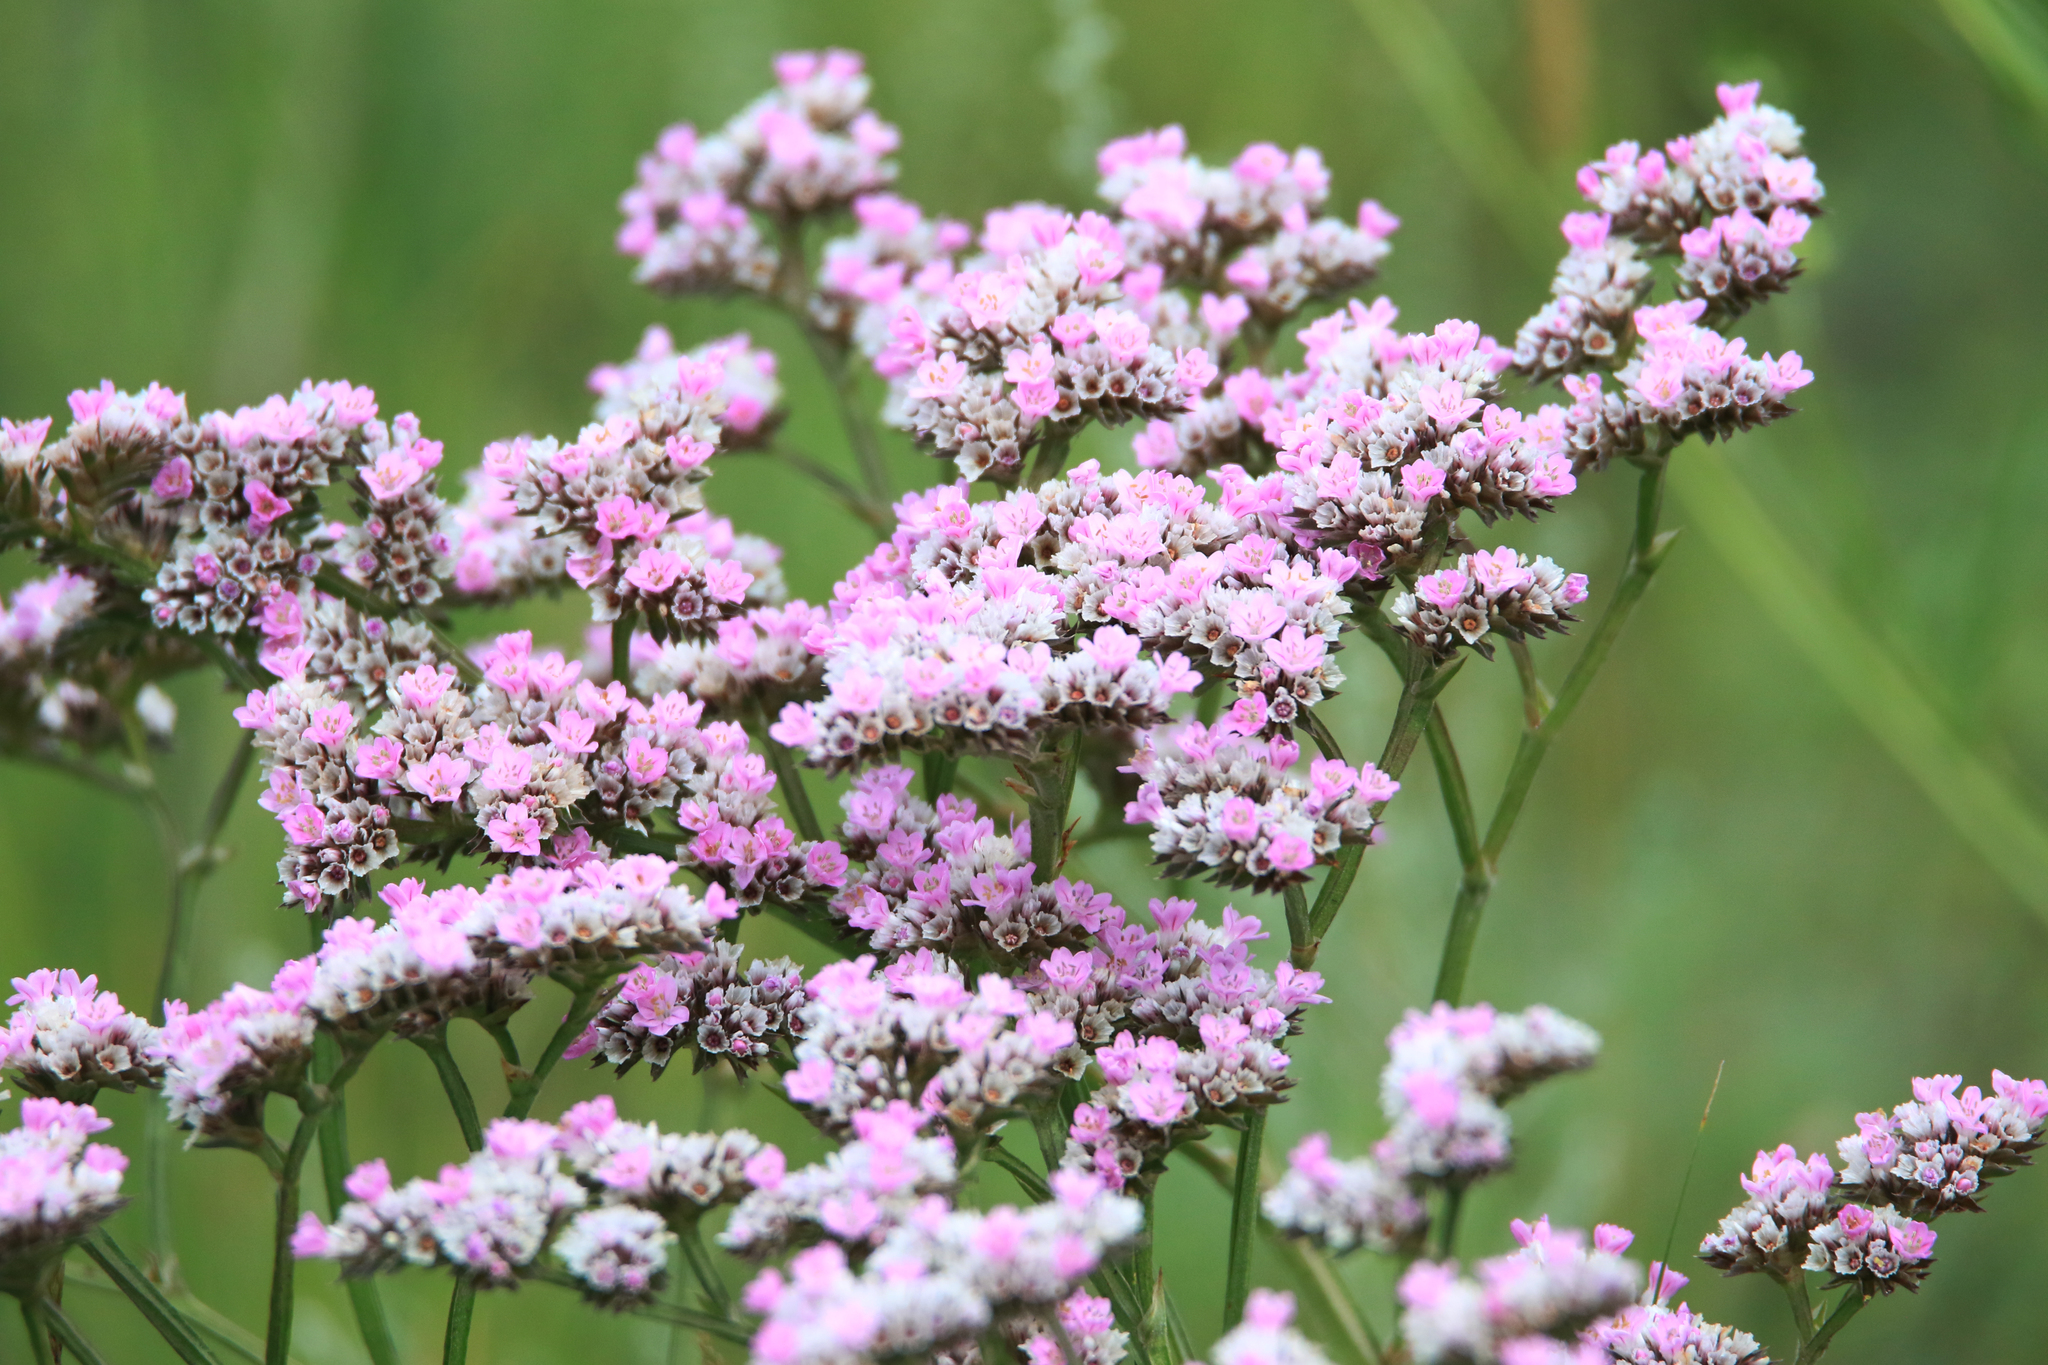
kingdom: Plantae
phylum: Tracheophyta
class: Magnoliopsida
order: Caryophyllales
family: Plumbaginaceae
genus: Goniolimon
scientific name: Goniolimon speciosum
